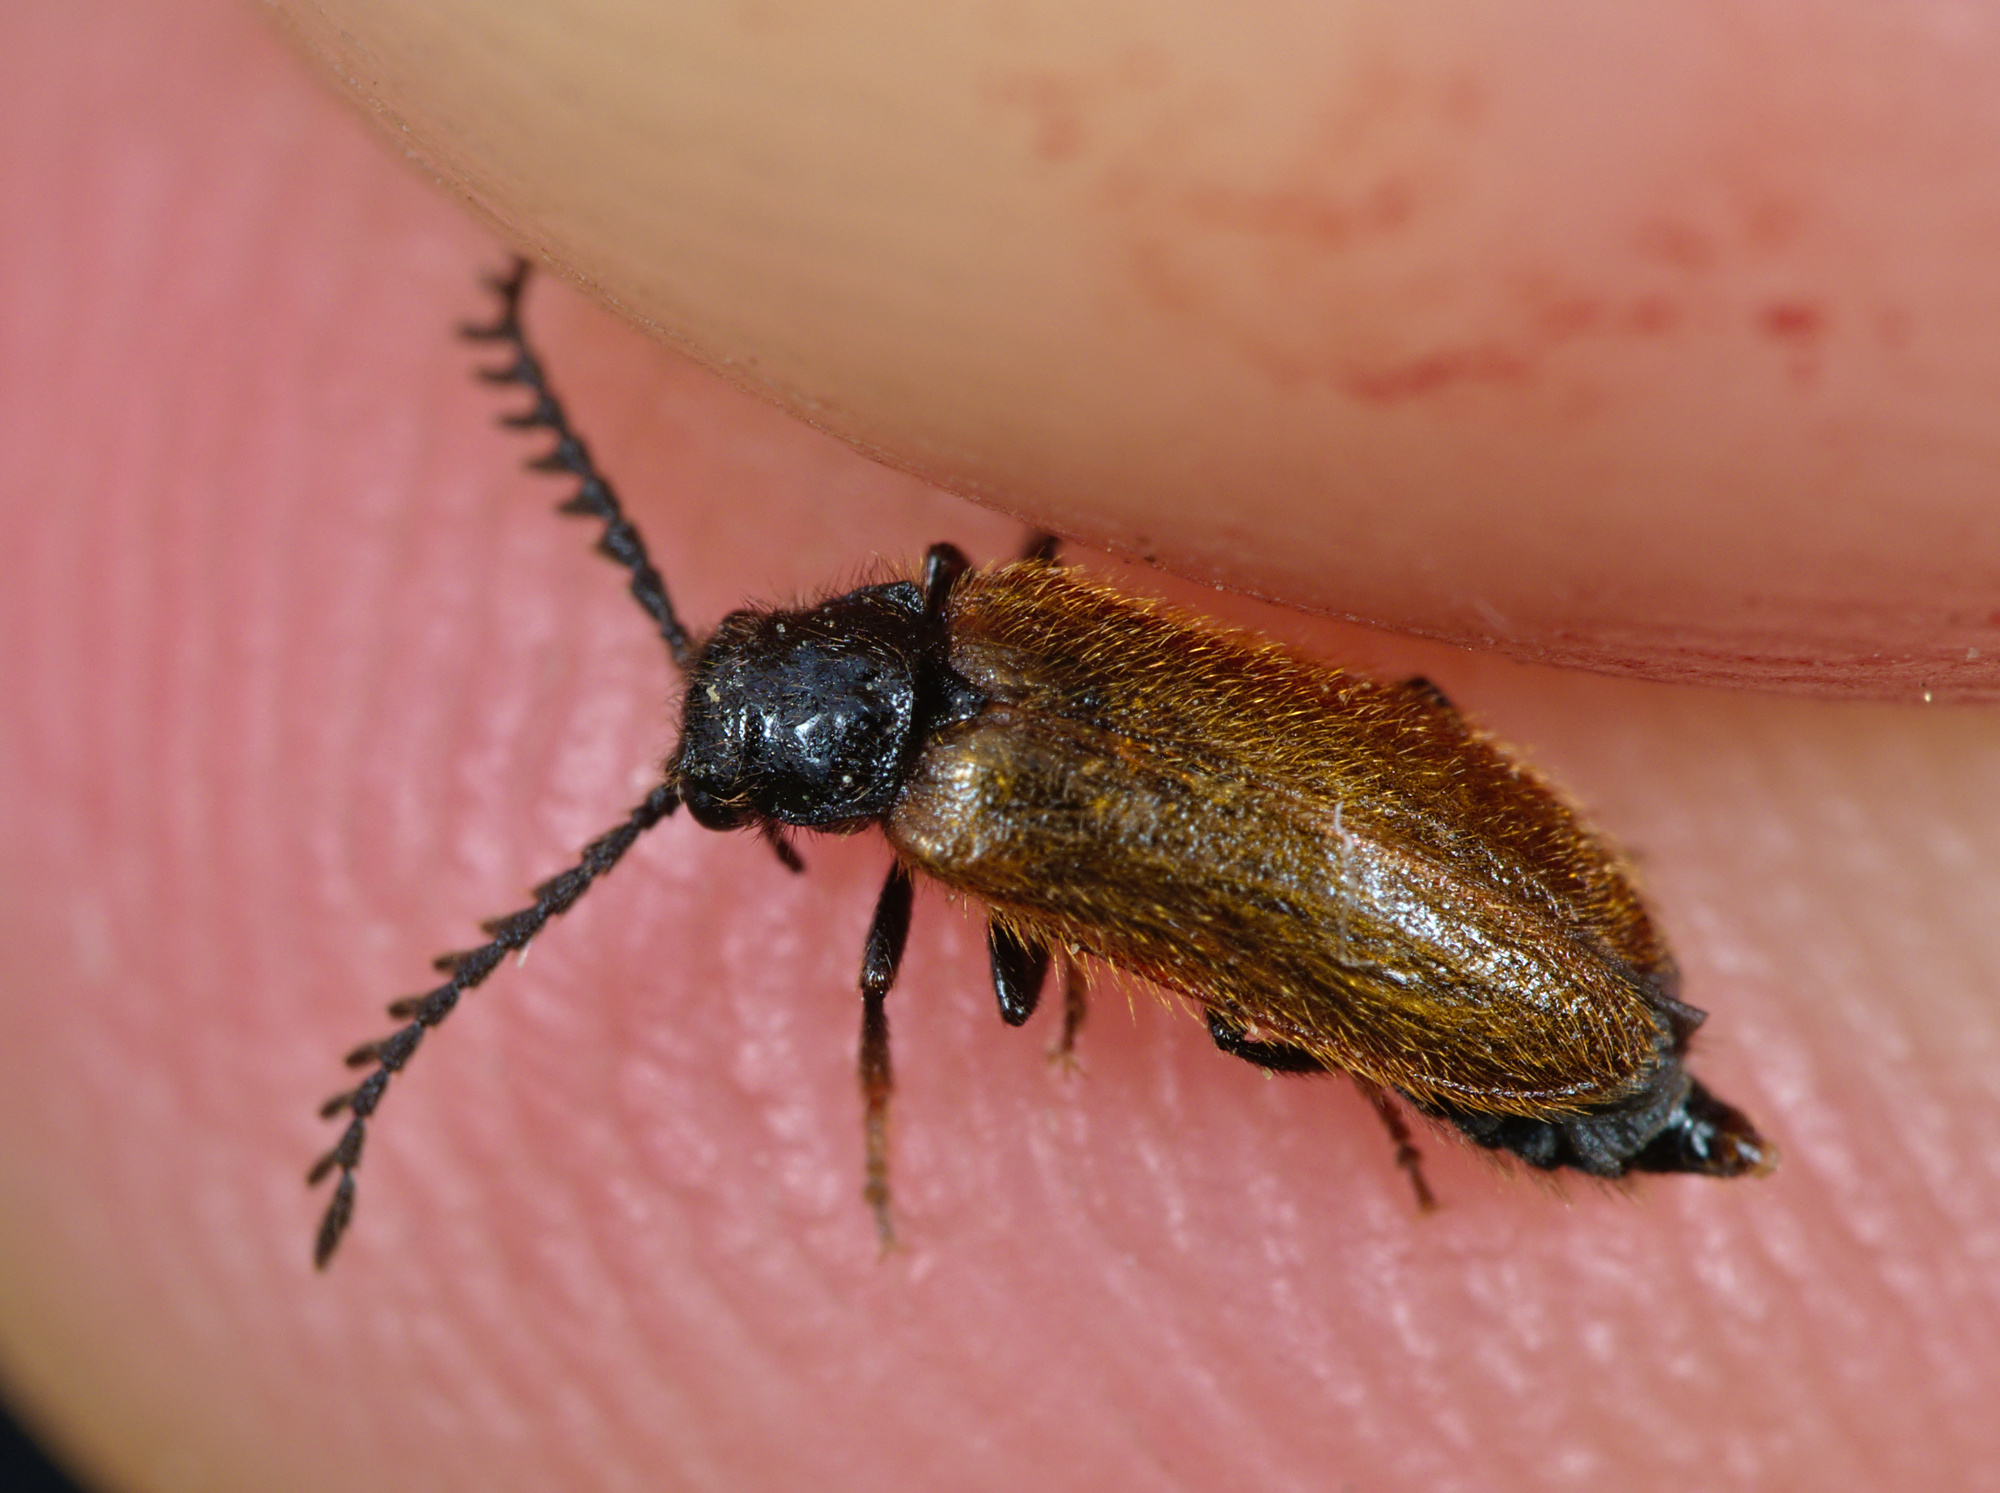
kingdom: Animalia
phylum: Arthropoda
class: Insecta
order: Coleoptera
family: Drilidae
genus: Drilus
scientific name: Drilus flavescens
